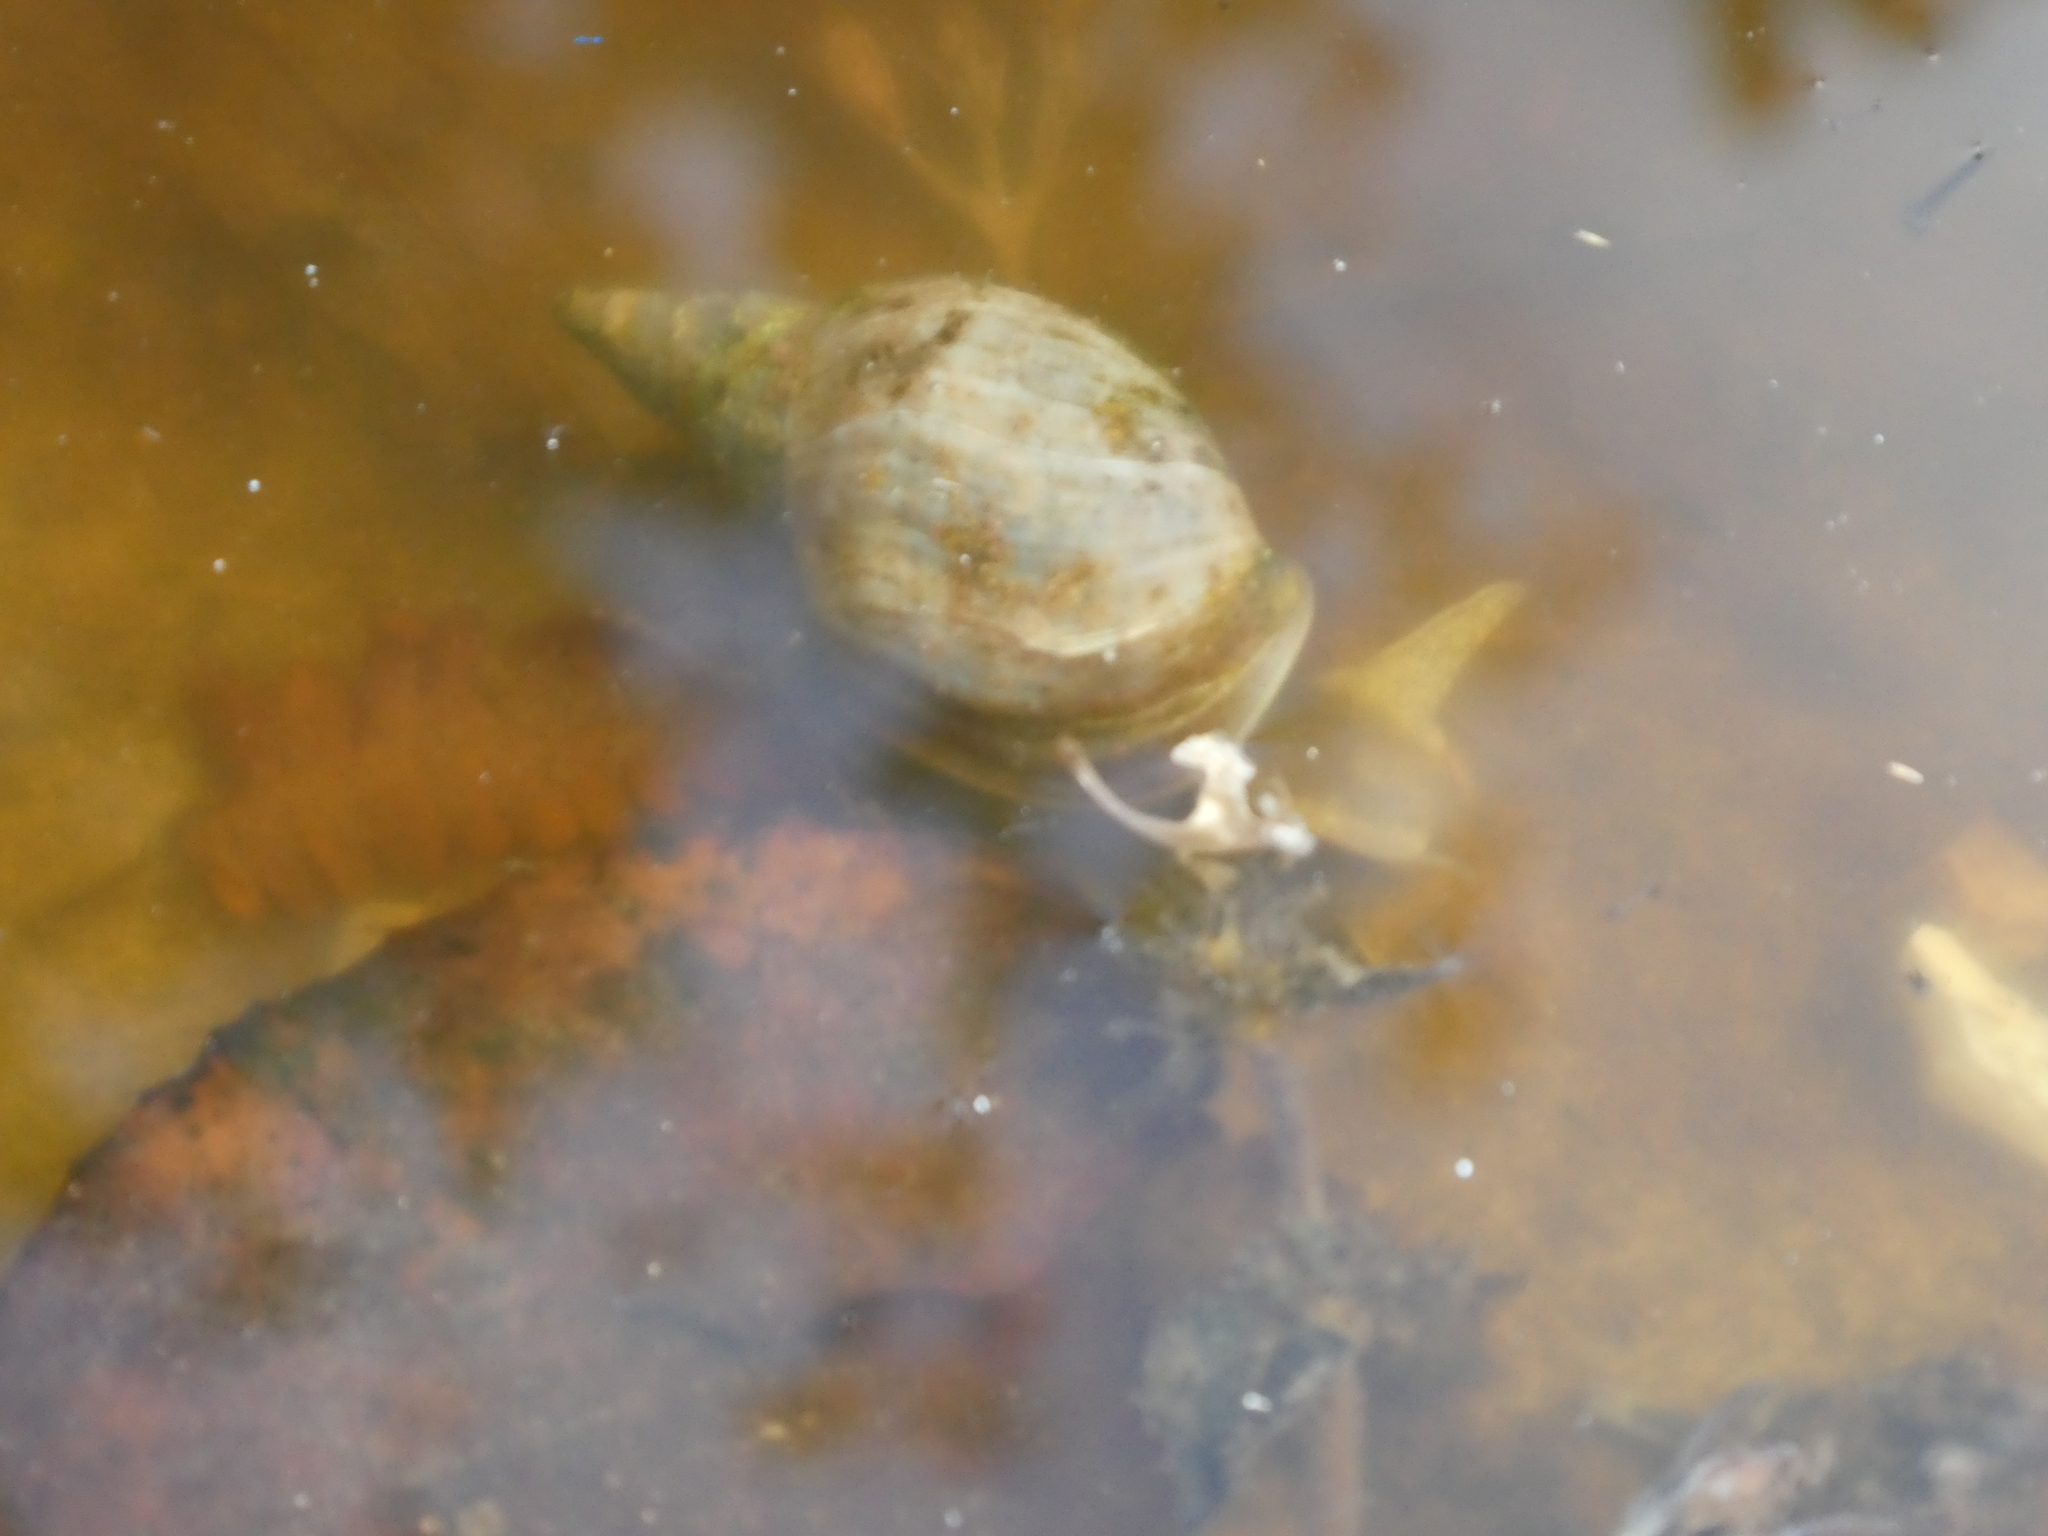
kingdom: Animalia
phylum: Mollusca
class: Gastropoda
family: Lymnaeidae
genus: Lymnaea
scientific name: Lymnaea stagnalis
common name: Great pond snail
